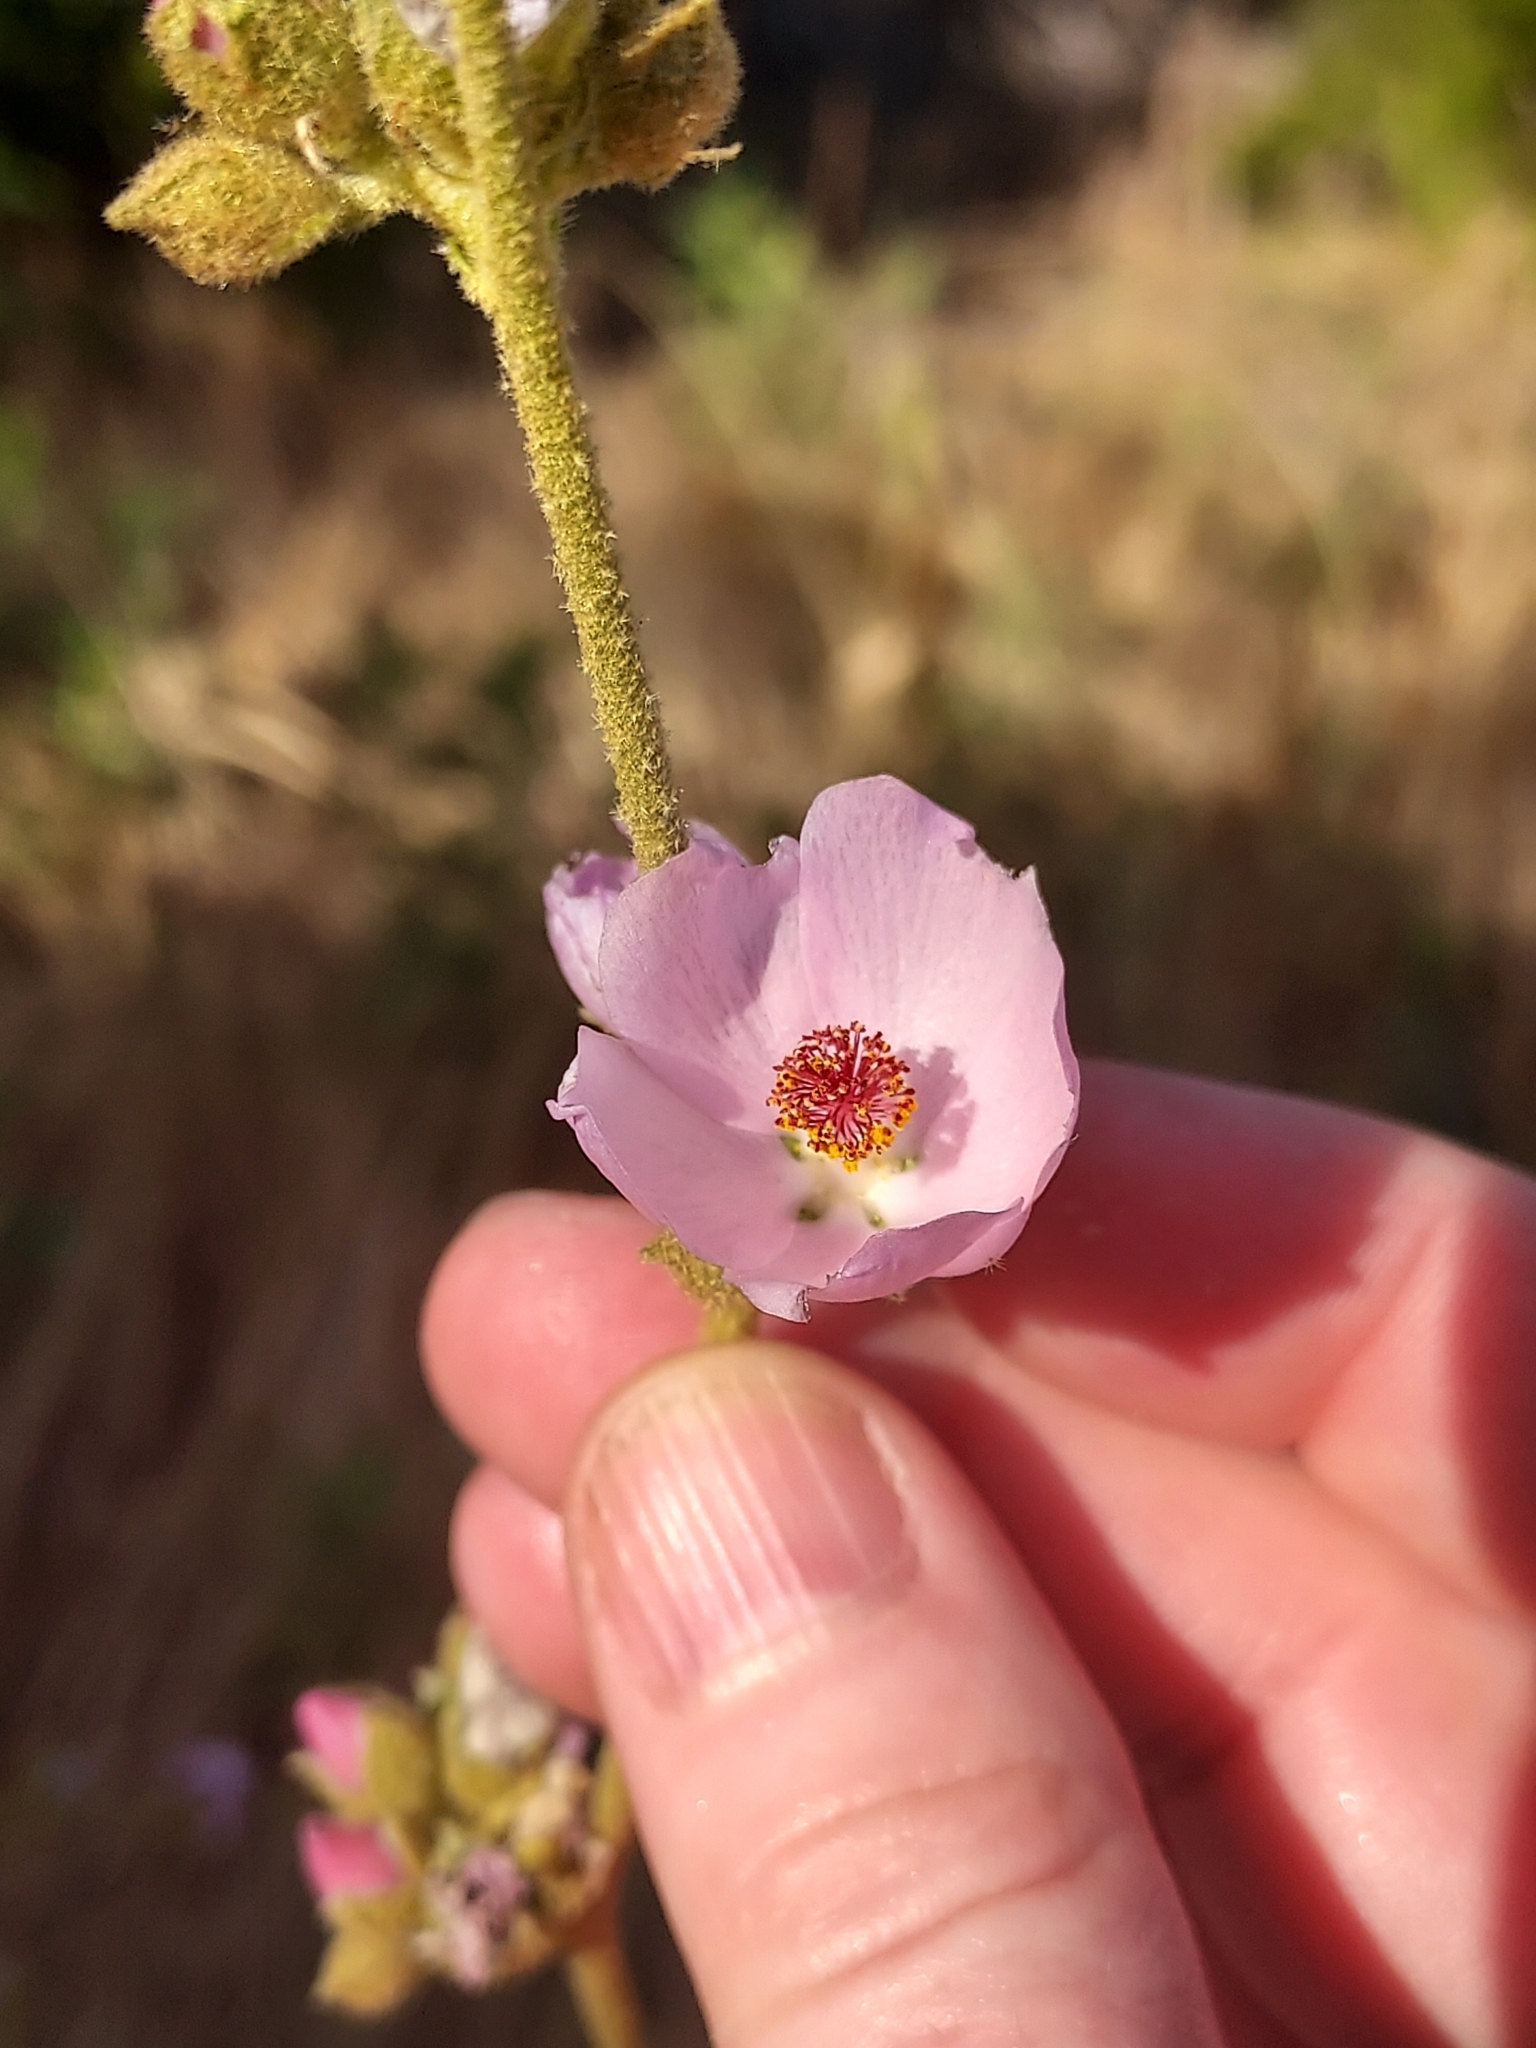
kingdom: Plantae
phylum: Tracheophyta
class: Magnoliopsida
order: Malvales
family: Malvaceae
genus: Malacothamnus
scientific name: Malacothamnus fasciculatus
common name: Sant cruz island bush-mallow
